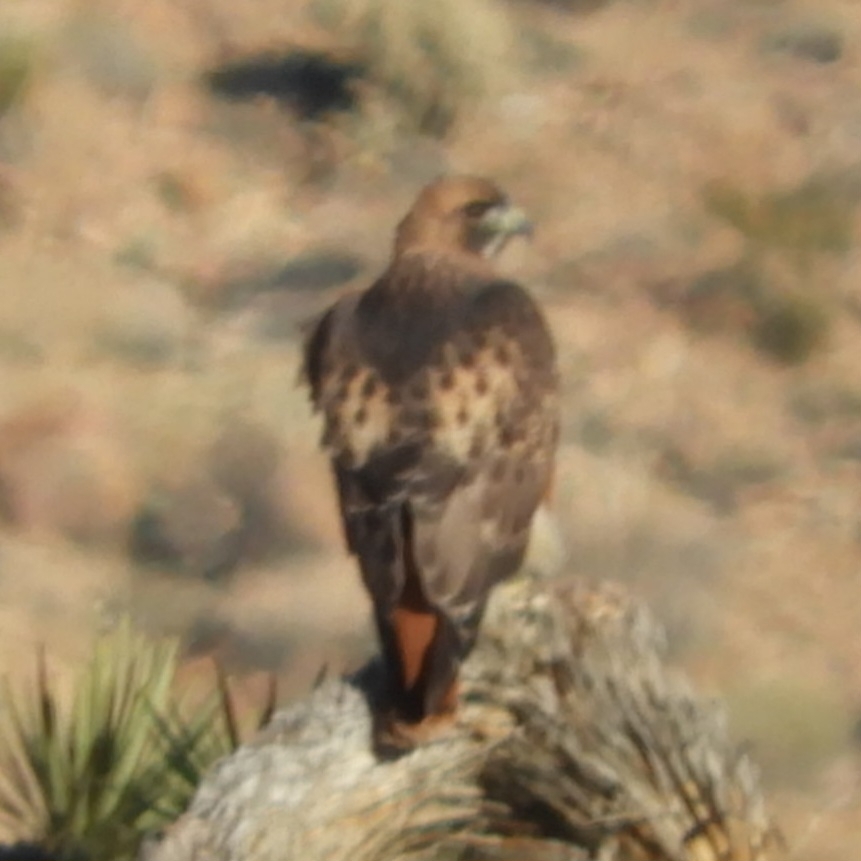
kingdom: Animalia
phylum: Chordata
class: Aves
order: Accipitriformes
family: Accipitridae
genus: Buteo
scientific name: Buteo jamaicensis
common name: Red-tailed hawk
